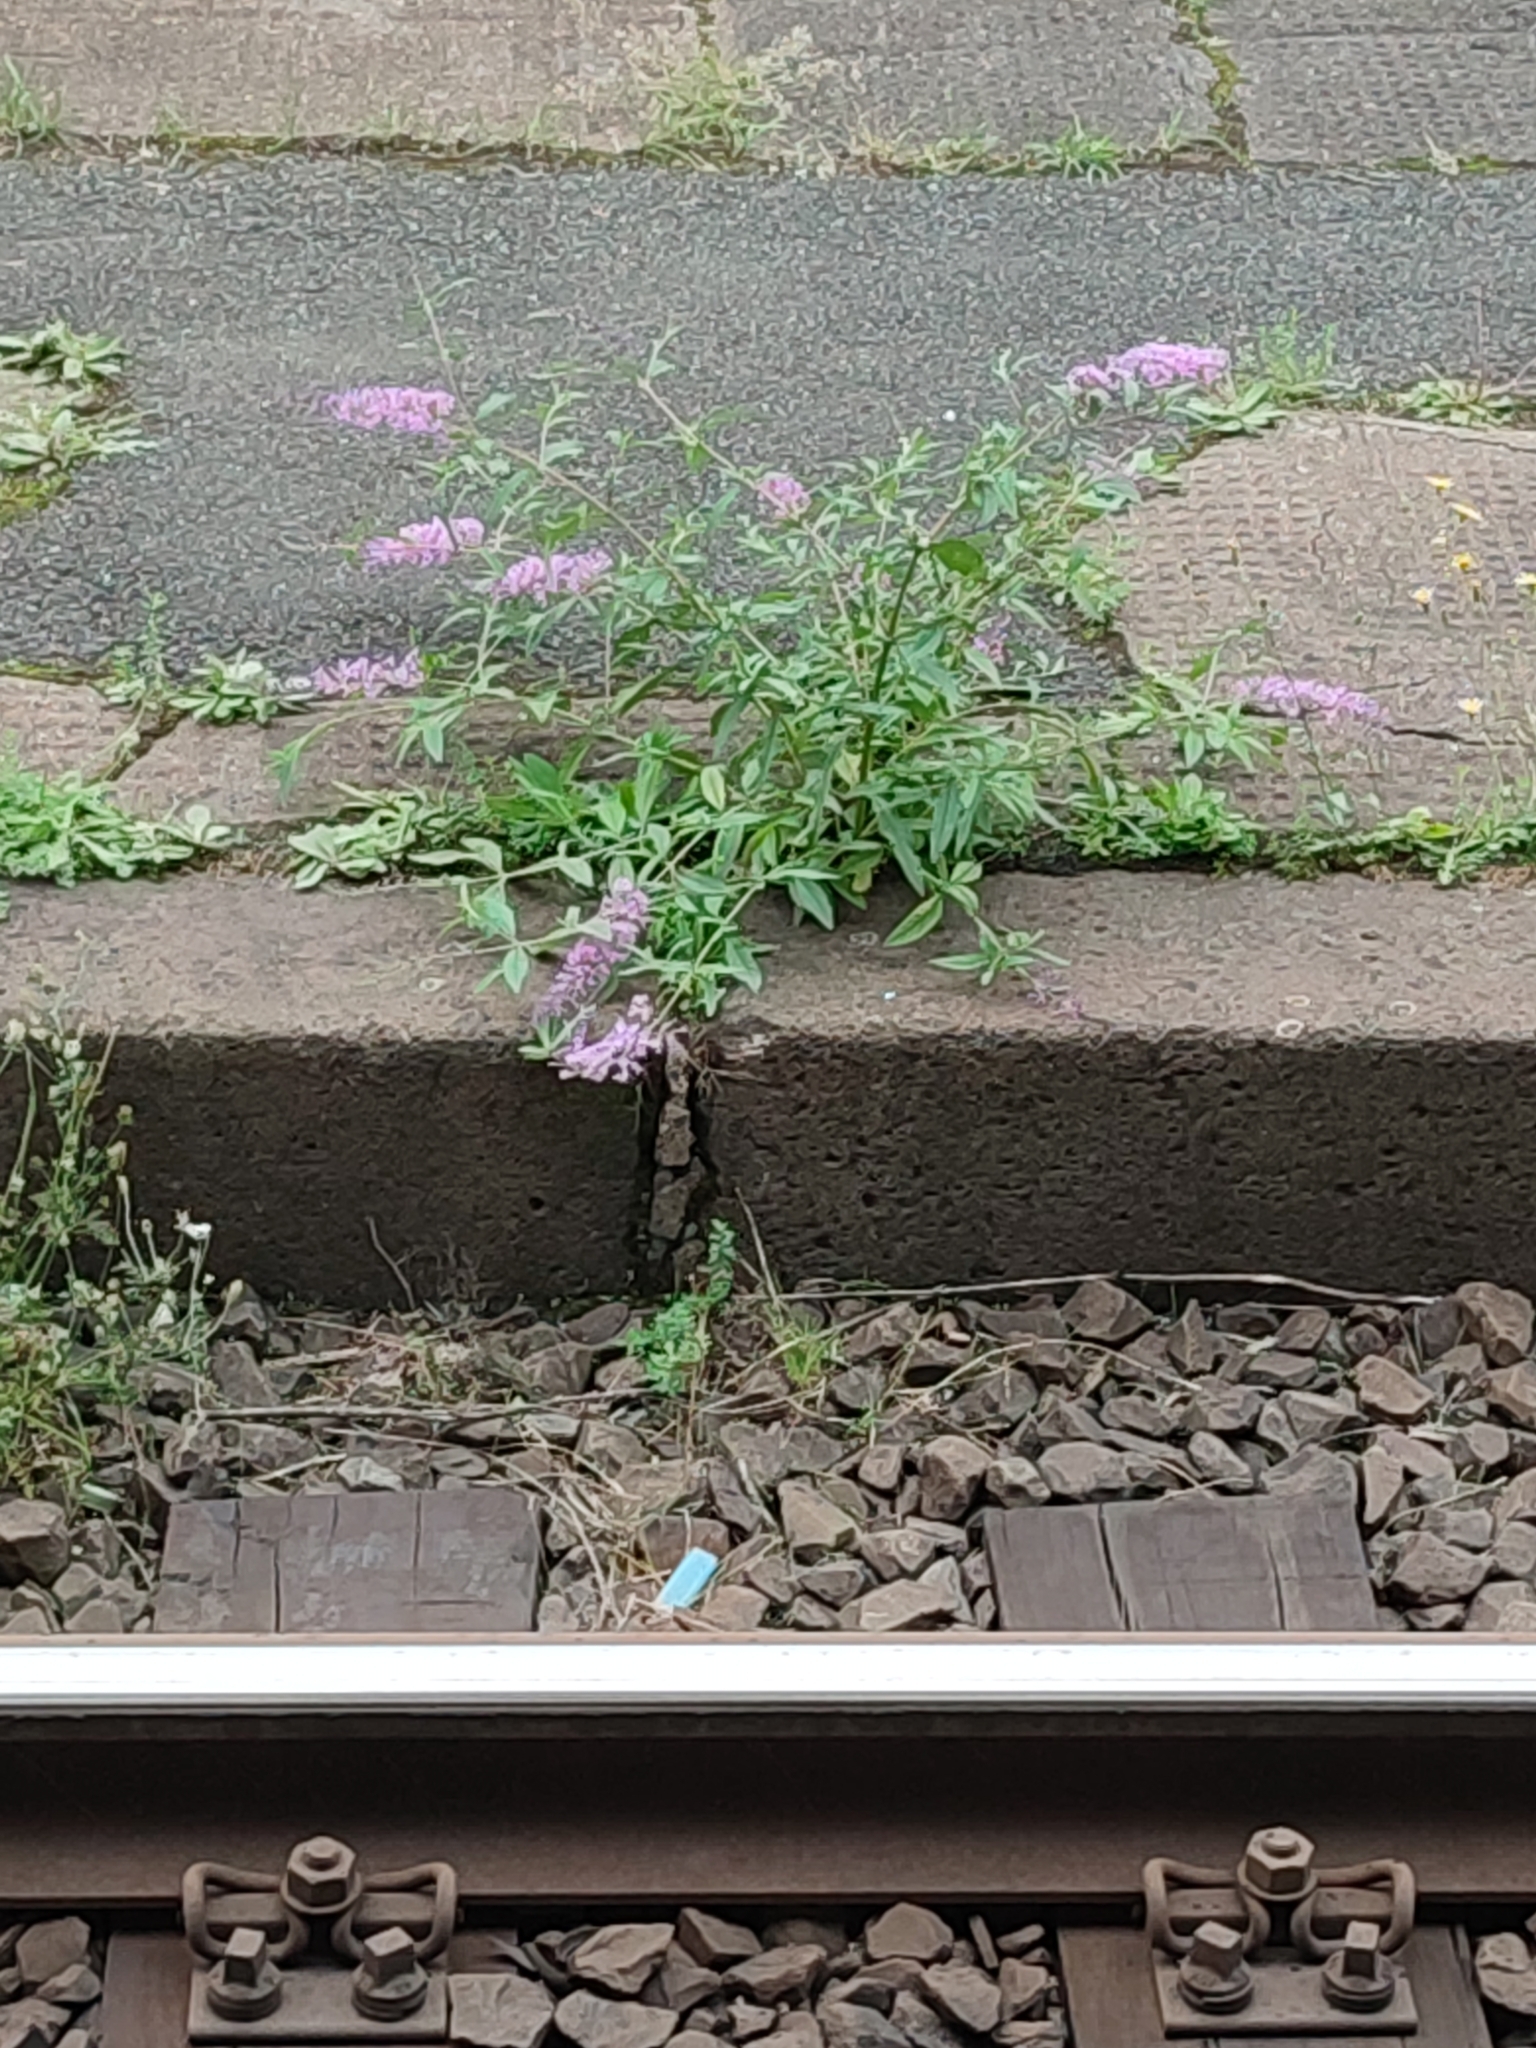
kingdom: Plantae
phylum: Tracheophyta
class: Magnoliopsida
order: Lamiales
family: Scrophulariaceae
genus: Buddleja
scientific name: Buddleja davidii
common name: Butterfly-bush
